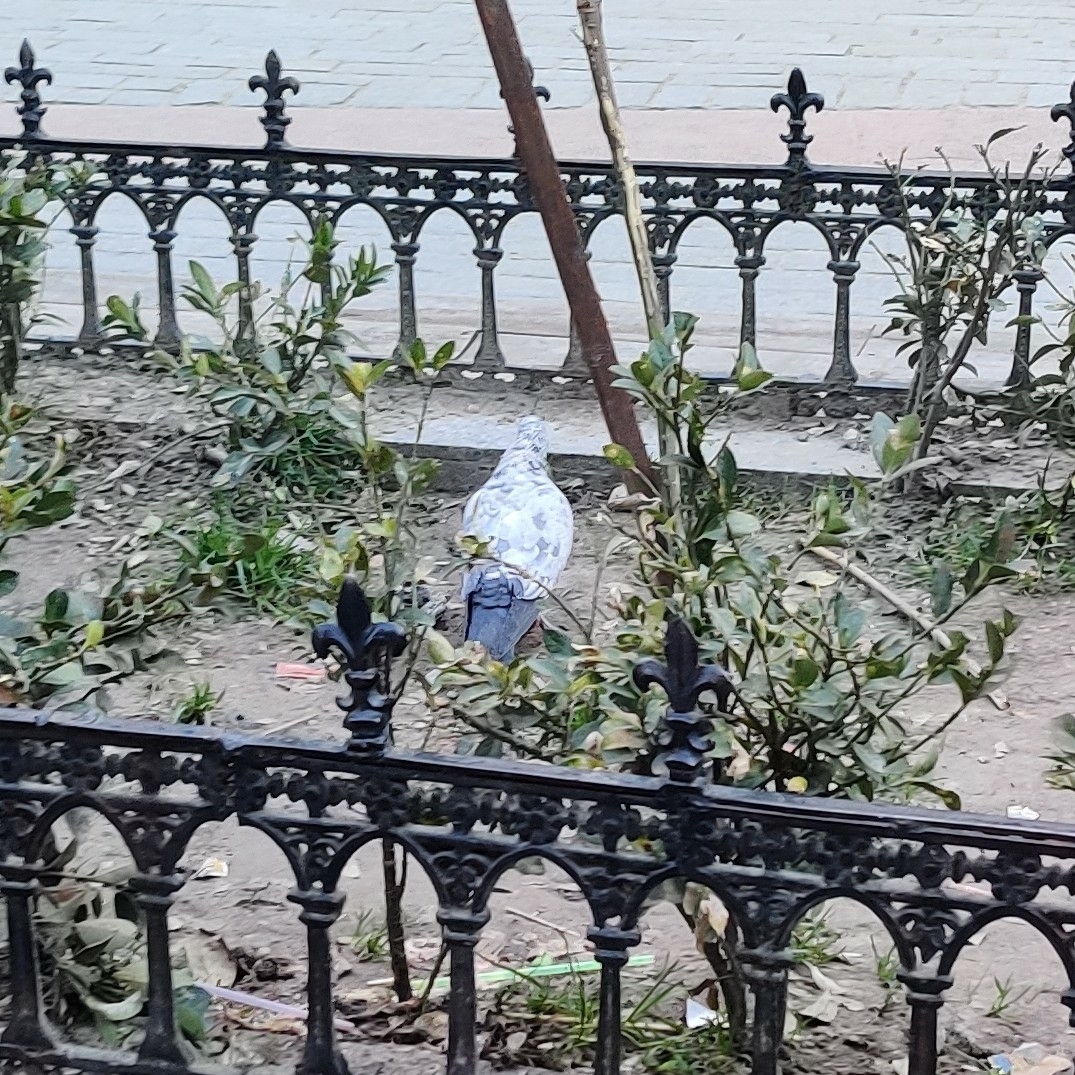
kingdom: Animalia
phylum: Chordata
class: Aves
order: Columbiformes
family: Columbidae
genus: Columba
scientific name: Columba livia
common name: Rock pigeon
